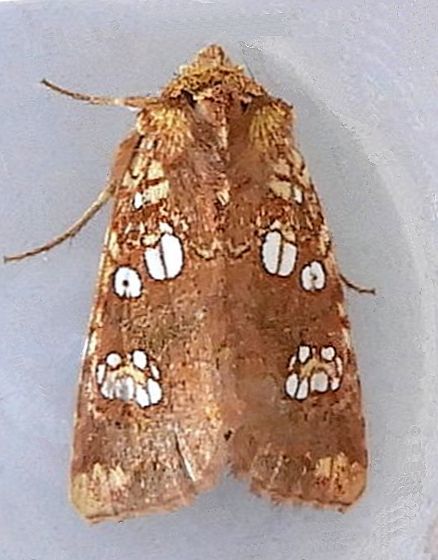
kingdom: Animalia
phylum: Arthropoda
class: Insecta
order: Lepidoptera
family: Noctuidae
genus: Hydroeciodes
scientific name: Hydroeciodes serrata
